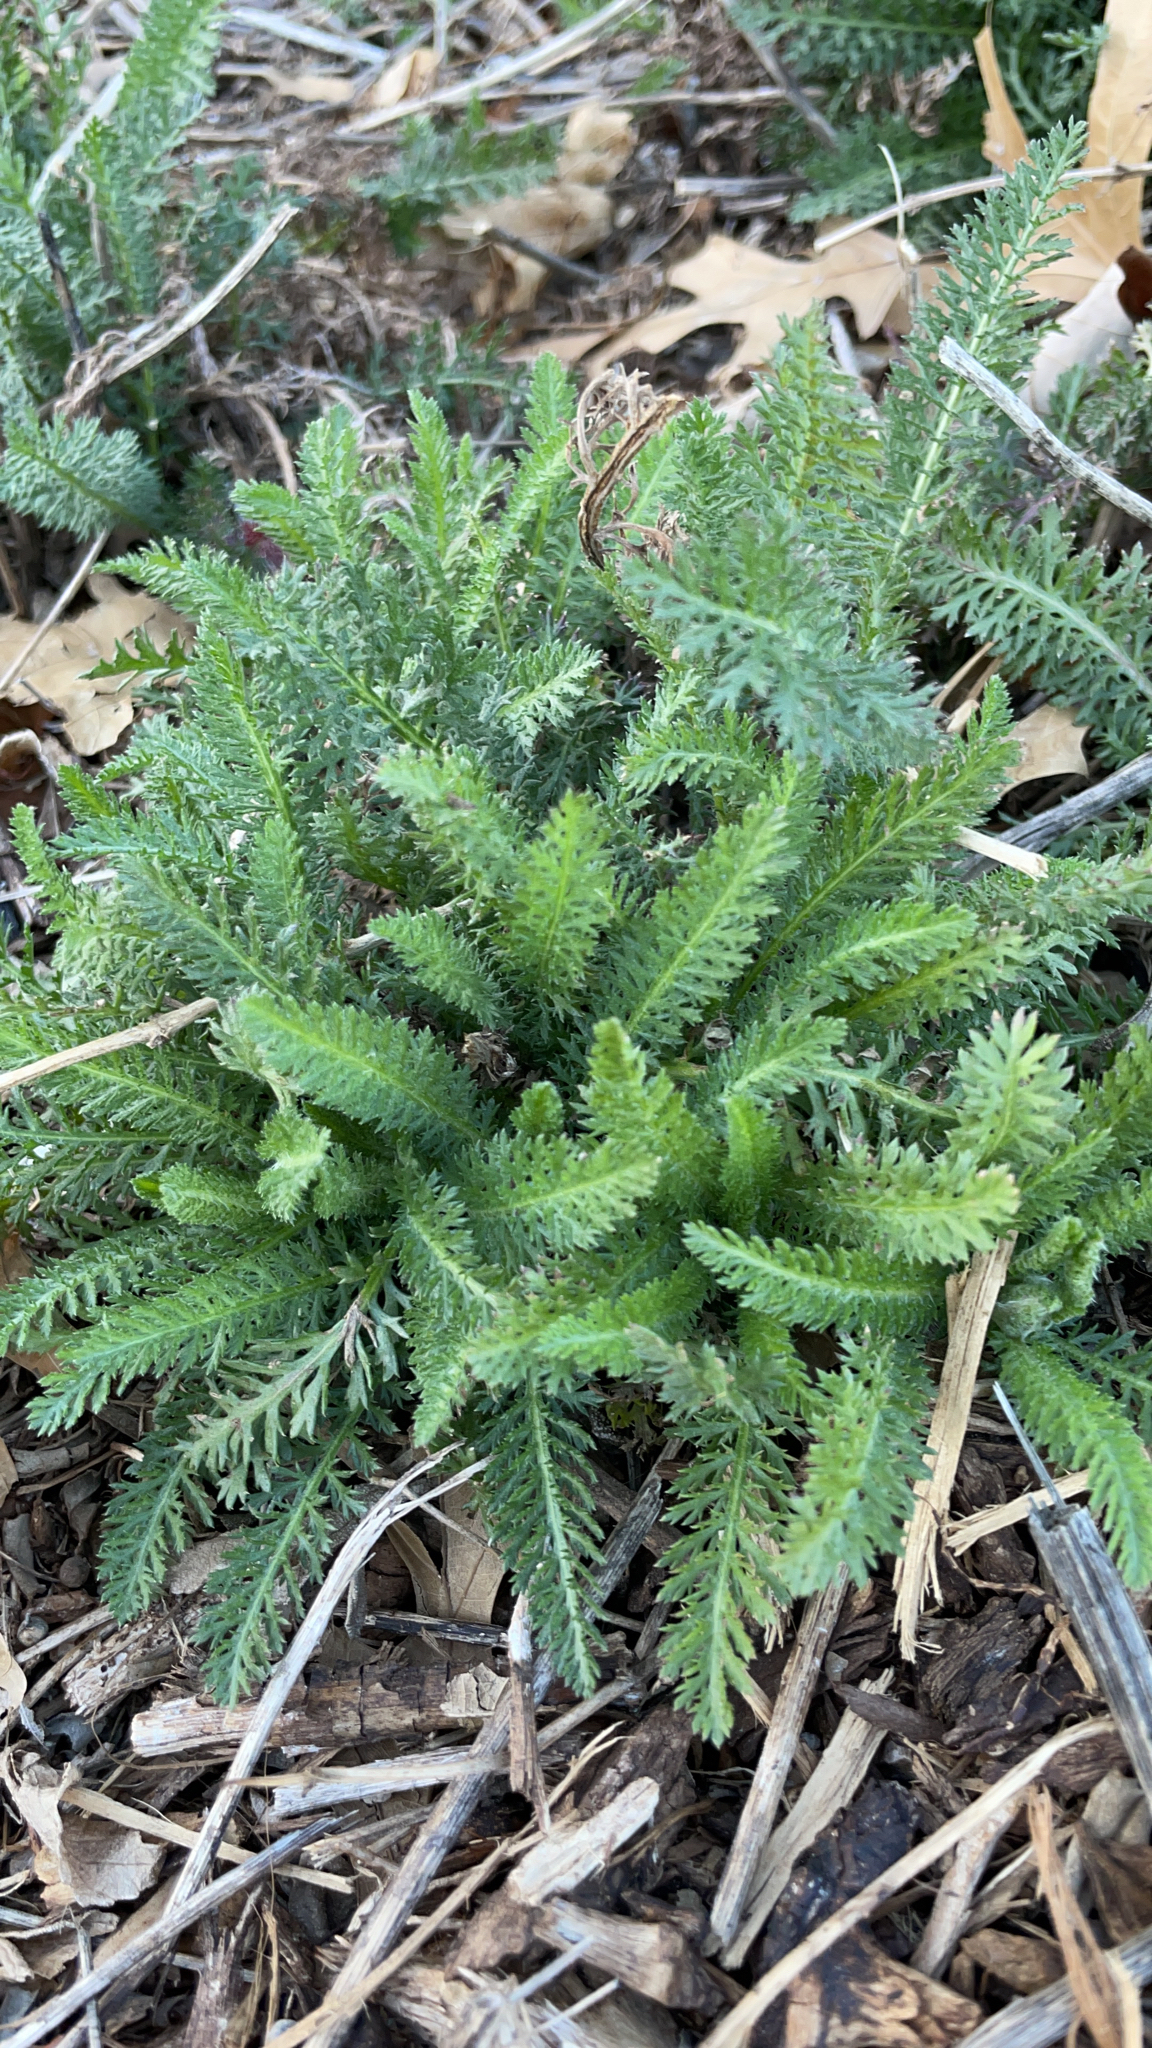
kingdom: Plantae
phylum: Tracheophyta
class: Magnoliopsida
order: Asterales
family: Asteraceae
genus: Achillea
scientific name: Achillea millefolium
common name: Yarrow
